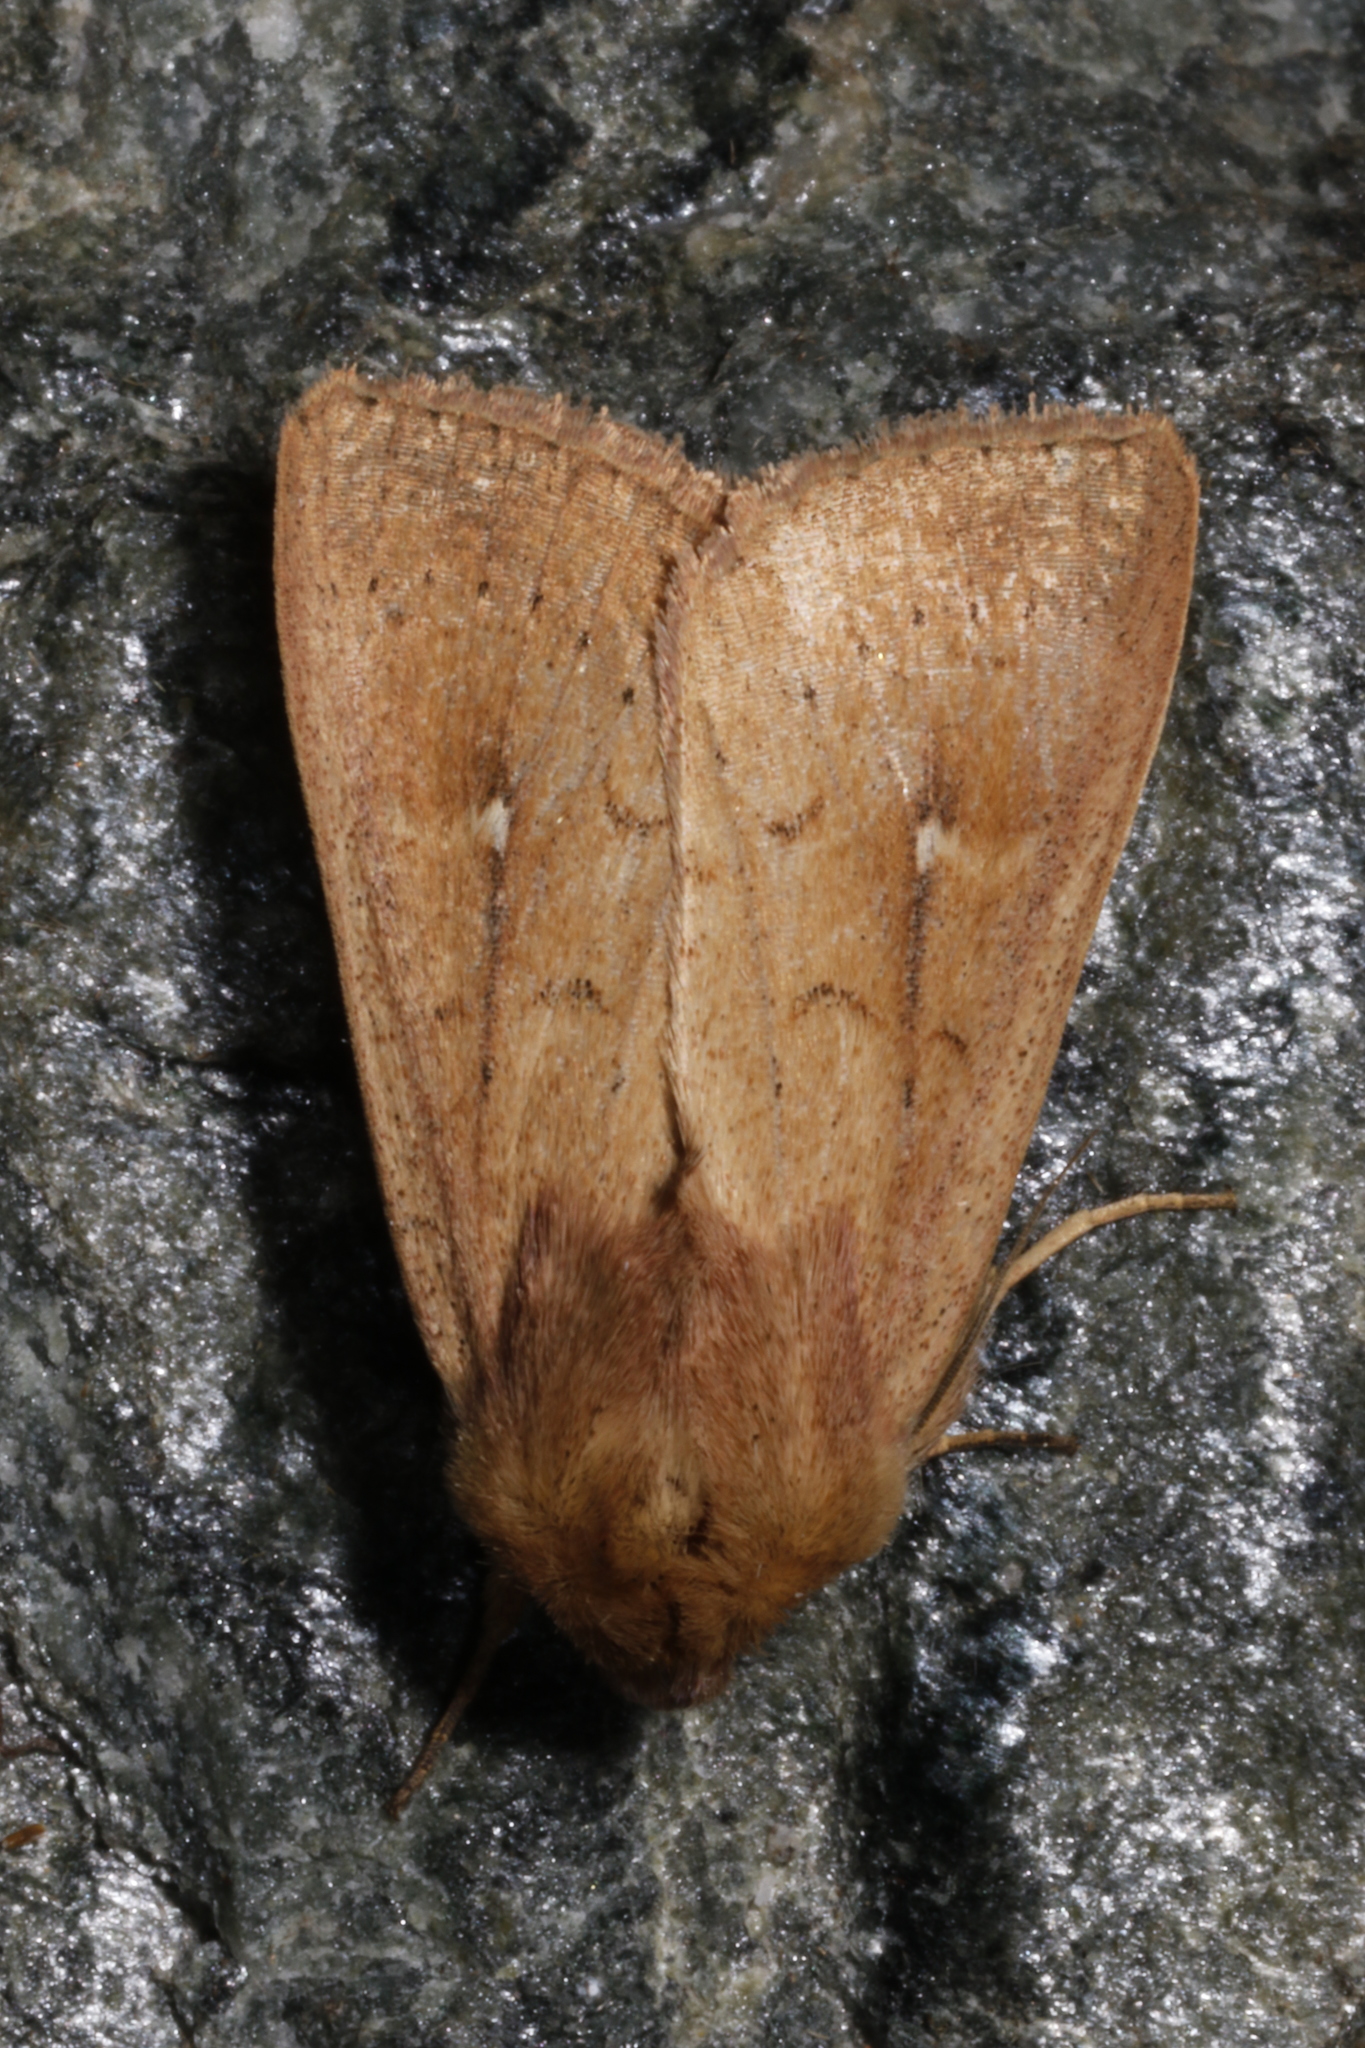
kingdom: Animalia
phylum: Arthropoda
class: Insecta
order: Lepidoptera
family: Noctuidae
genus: Mythimna
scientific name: Mythimna ferrago
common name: Clay
